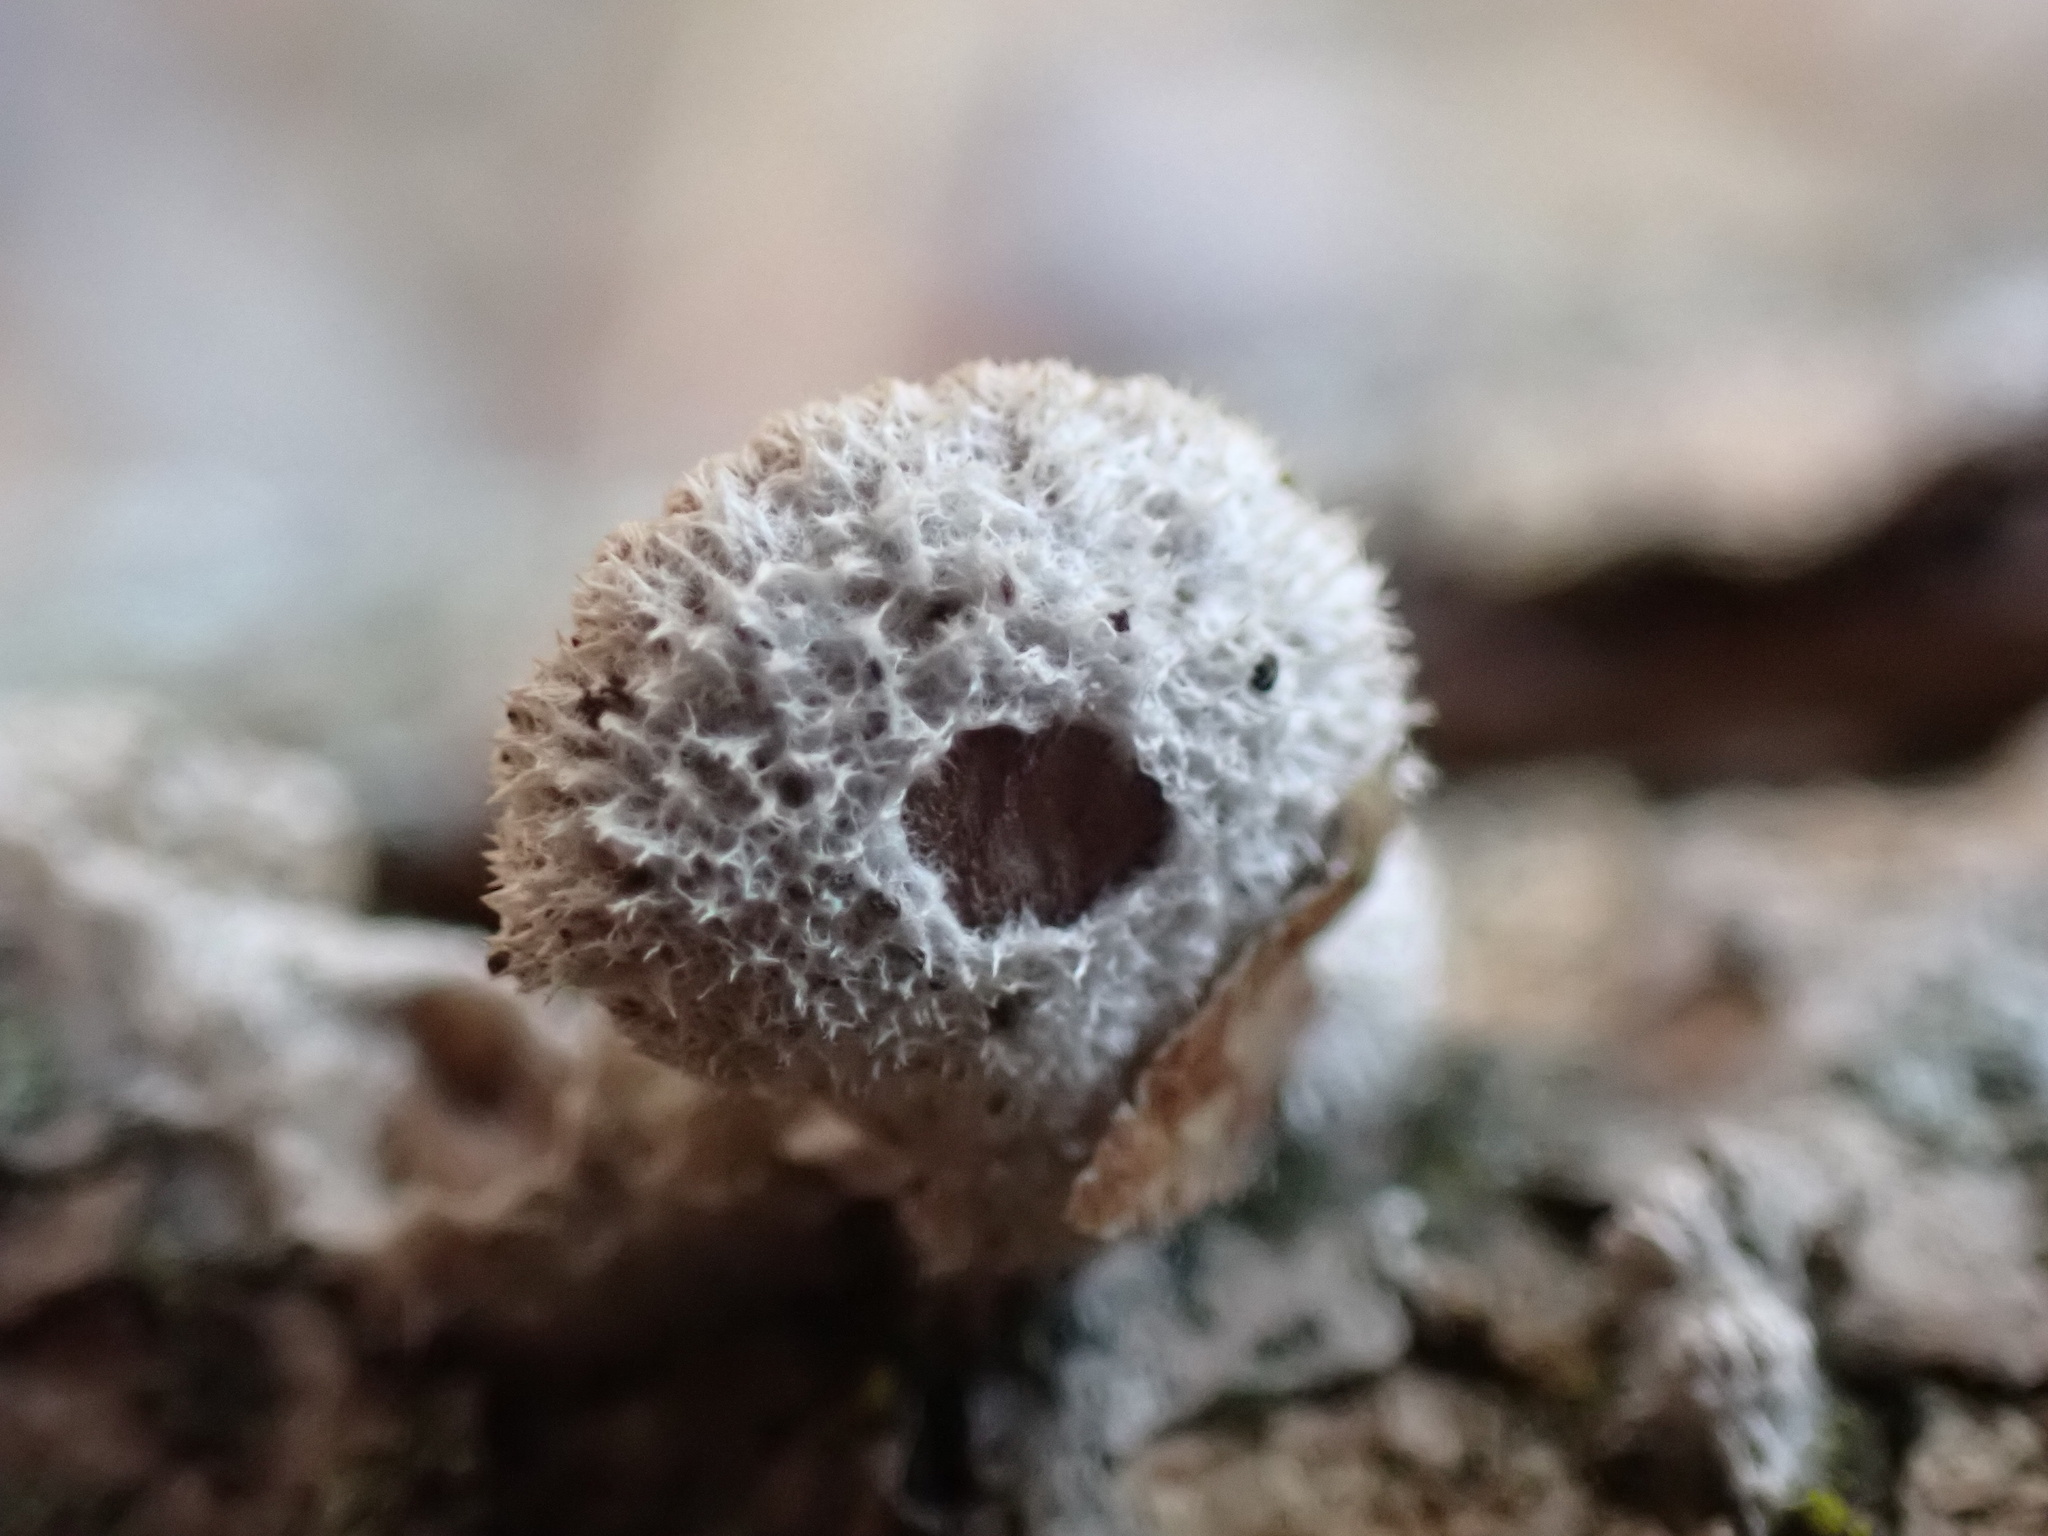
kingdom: Fungi
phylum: Basidiomycota
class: Agaricomycetes
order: Agaricales
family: Schizophyllaceae
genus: Schizophyllum
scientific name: Schizophyllum commune
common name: Common porecrust
